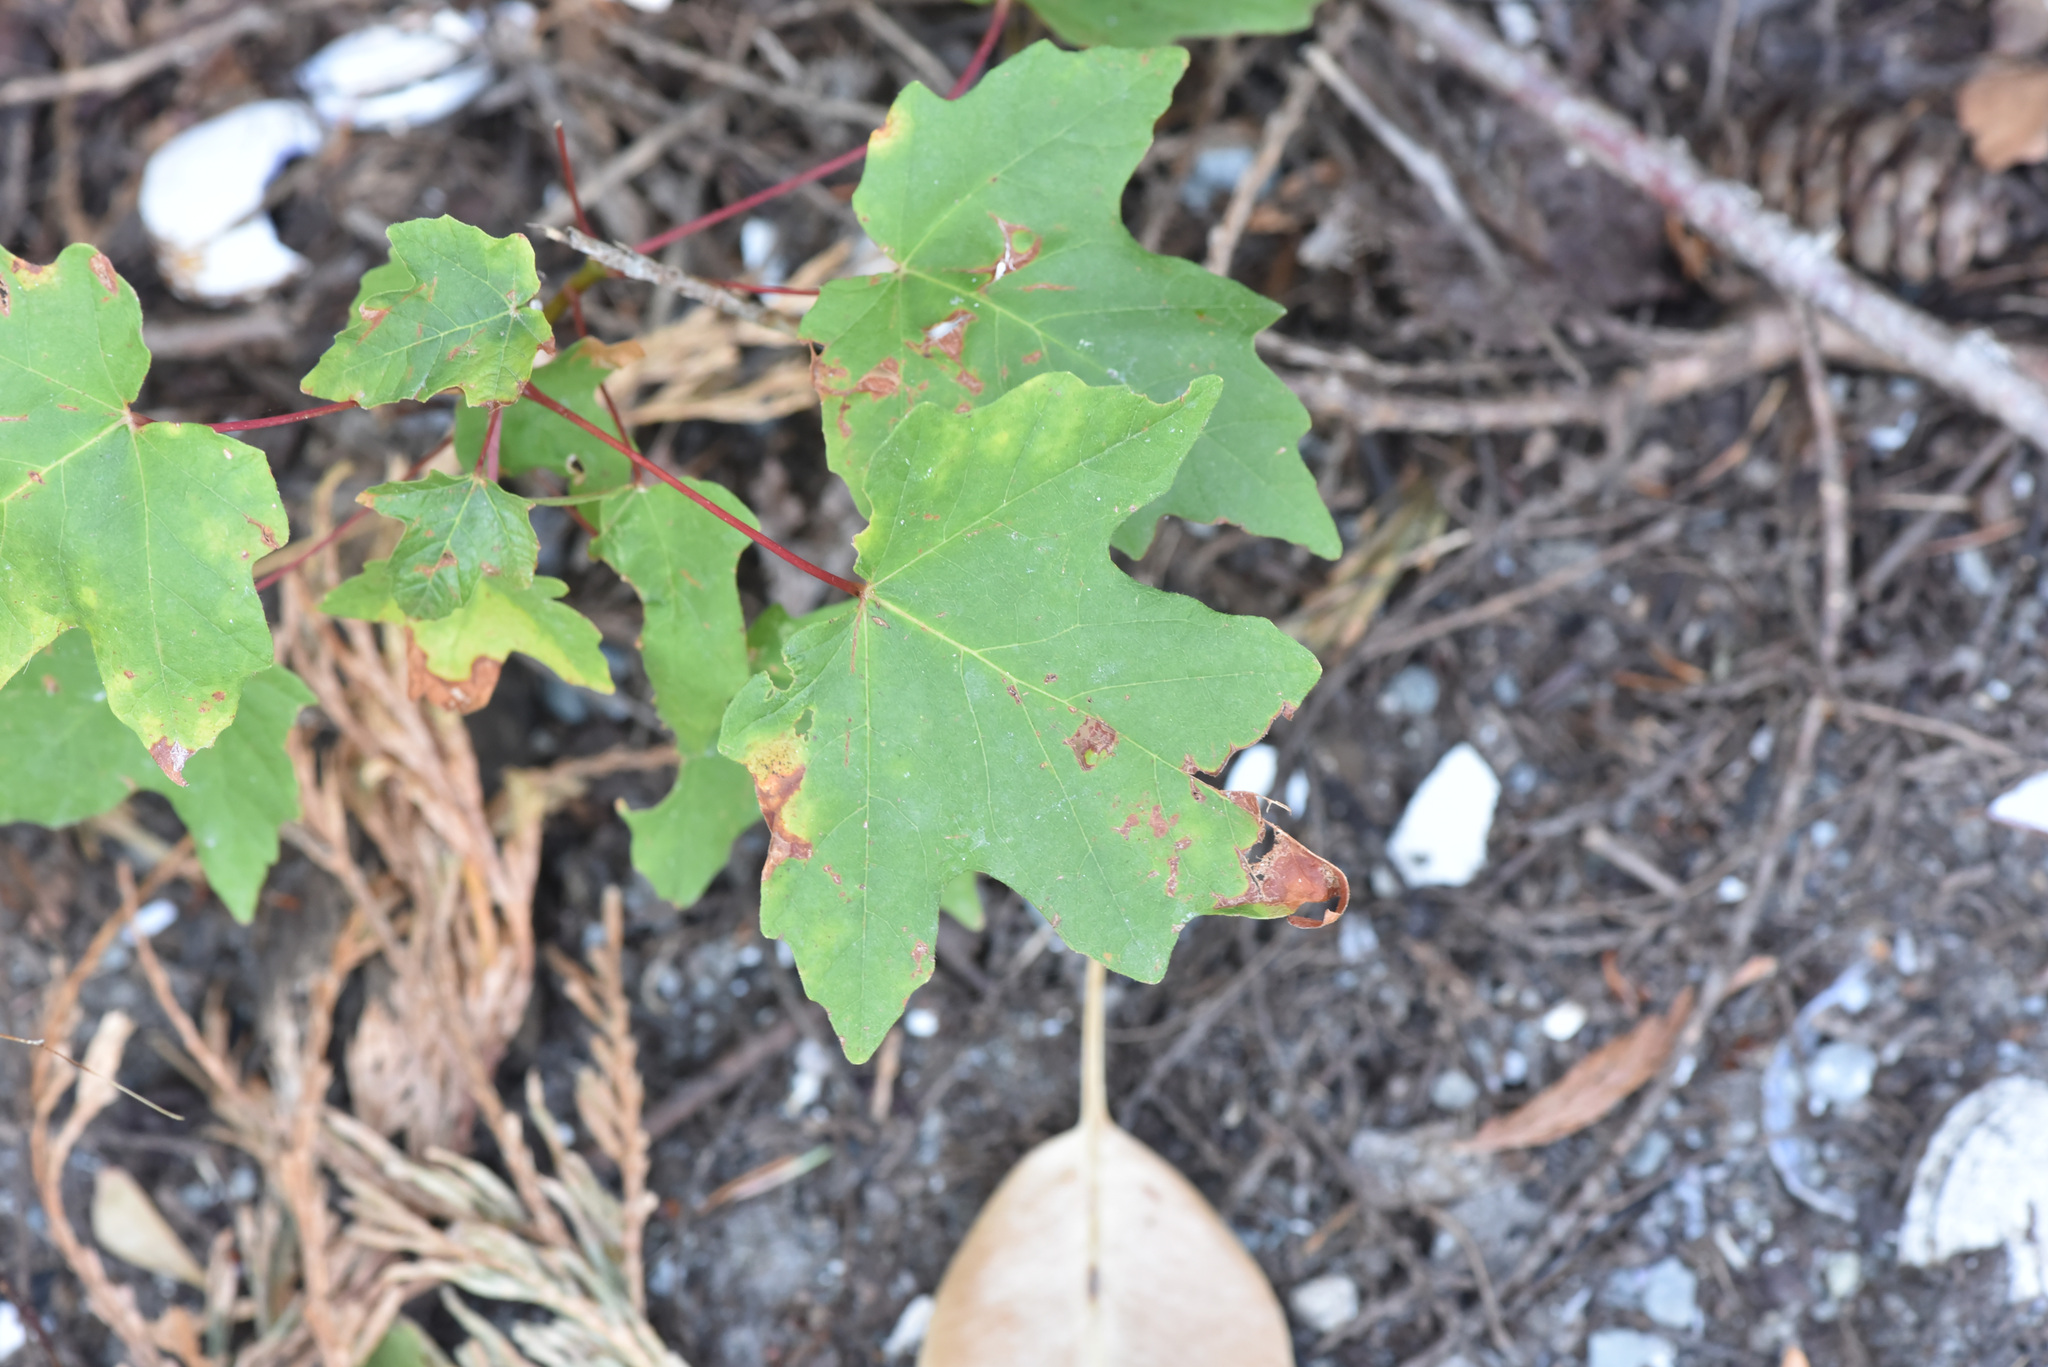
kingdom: Plantae
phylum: Tracheophyta
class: Magnoliopsida
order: Sapindales
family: Sapindaceae
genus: Acer
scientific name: Acer macrophyllum
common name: Oregon maple
